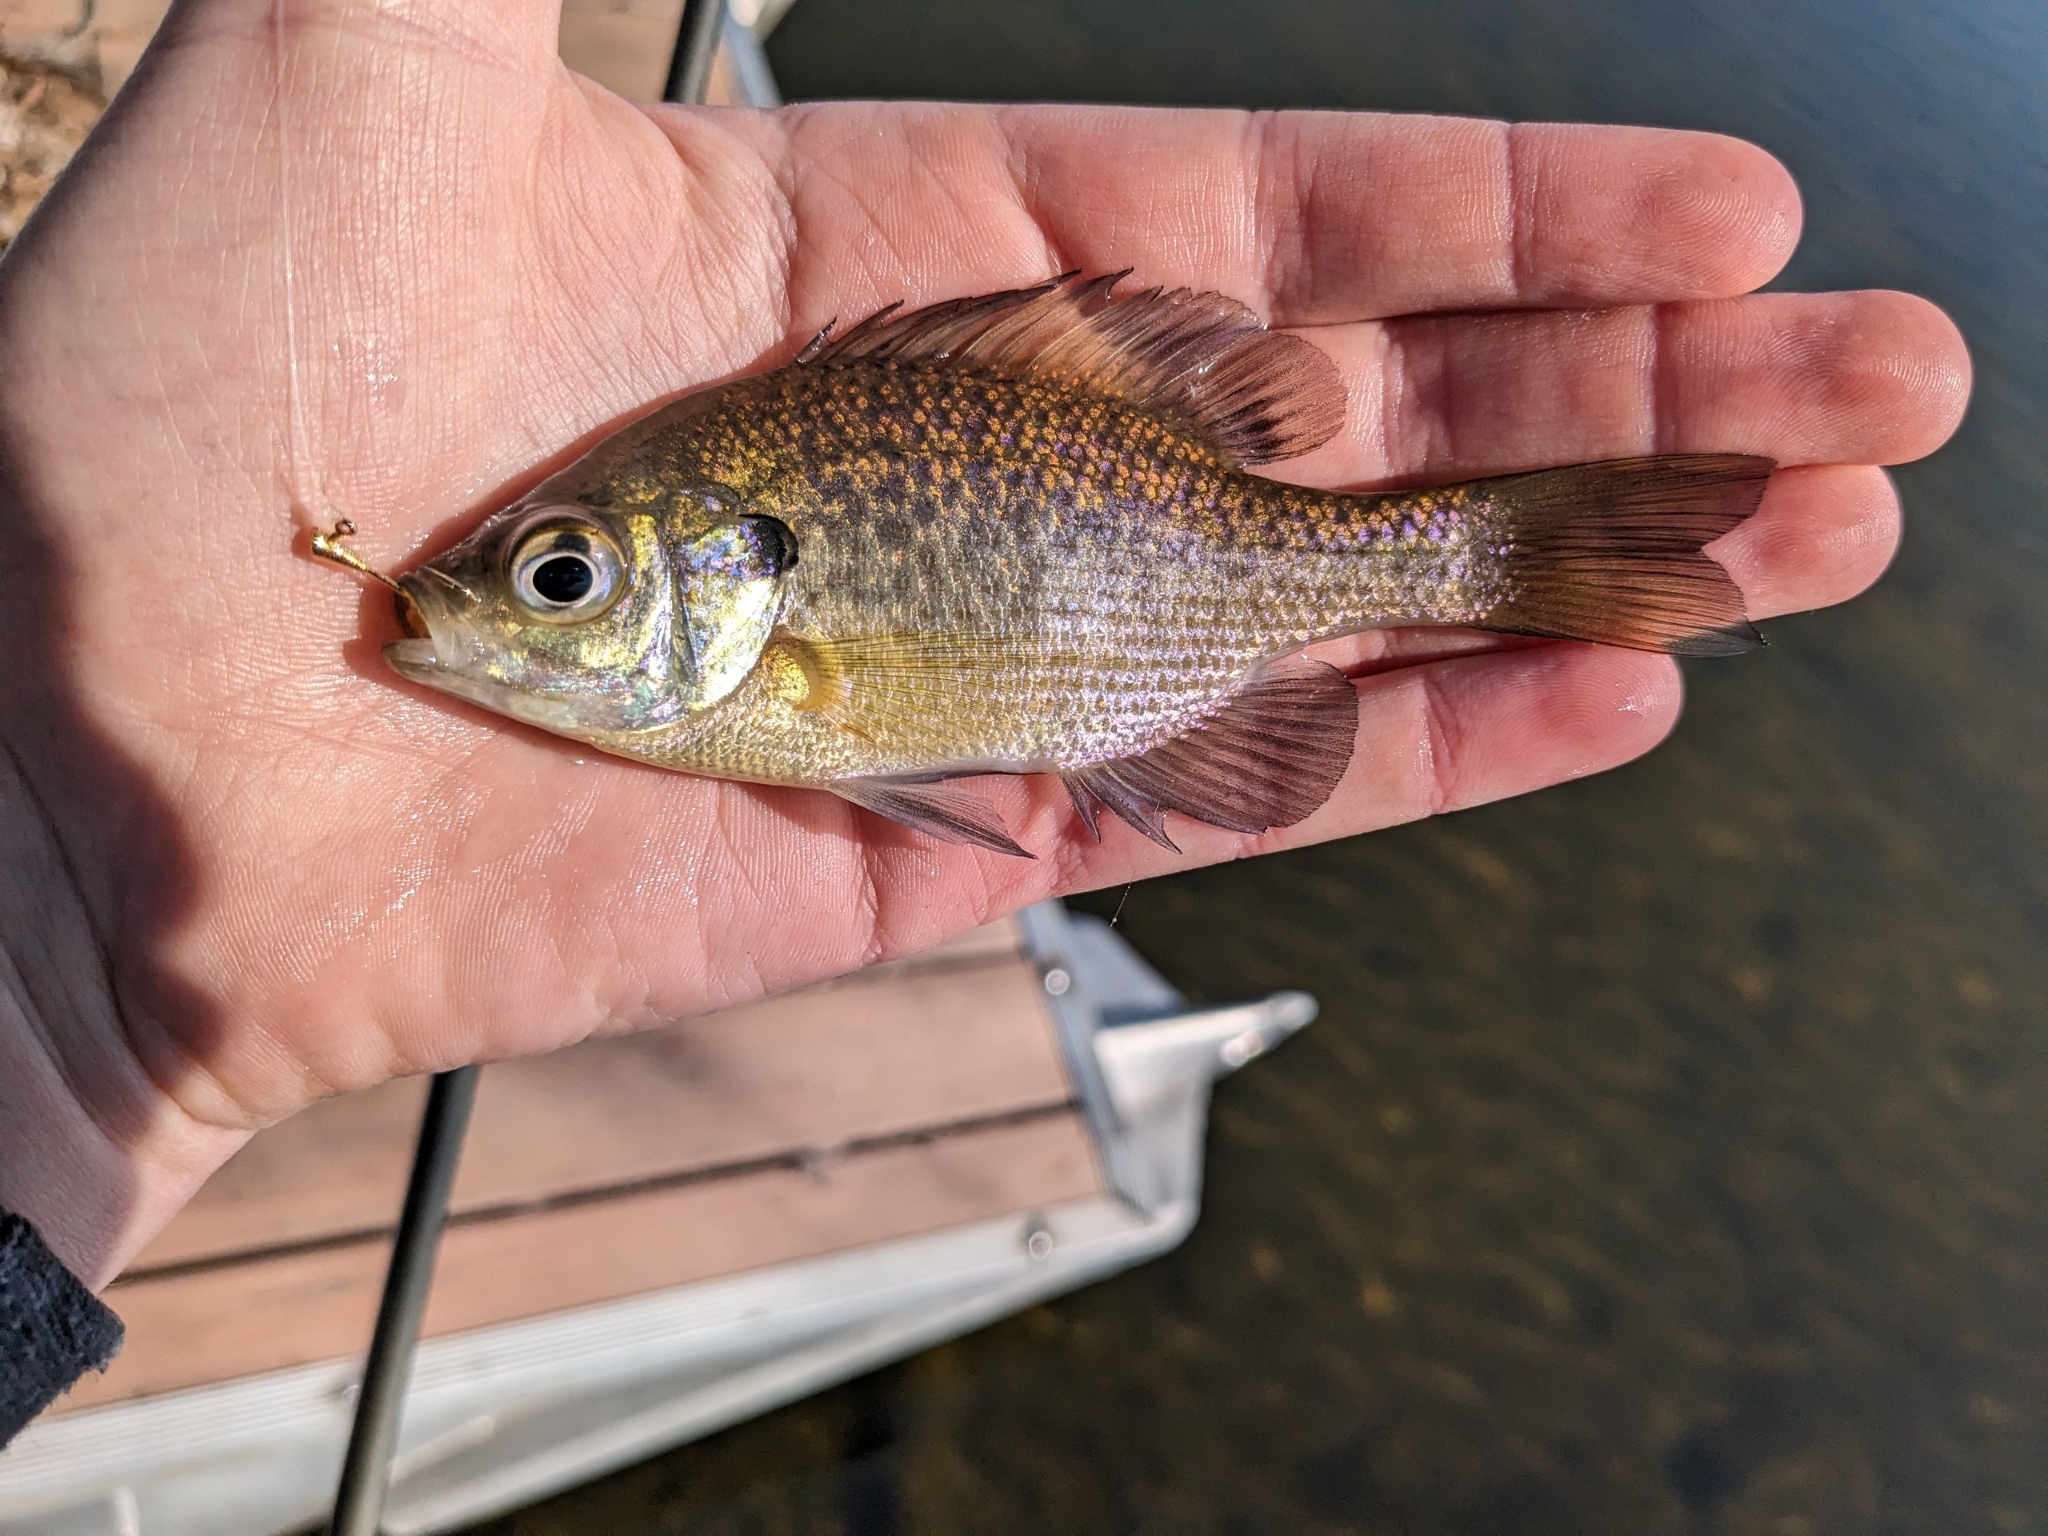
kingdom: Animalia
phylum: Chordata
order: Perciformes
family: Centrarchidae
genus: Lepomis
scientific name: Lepomis macrochirus
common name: Bluegill
